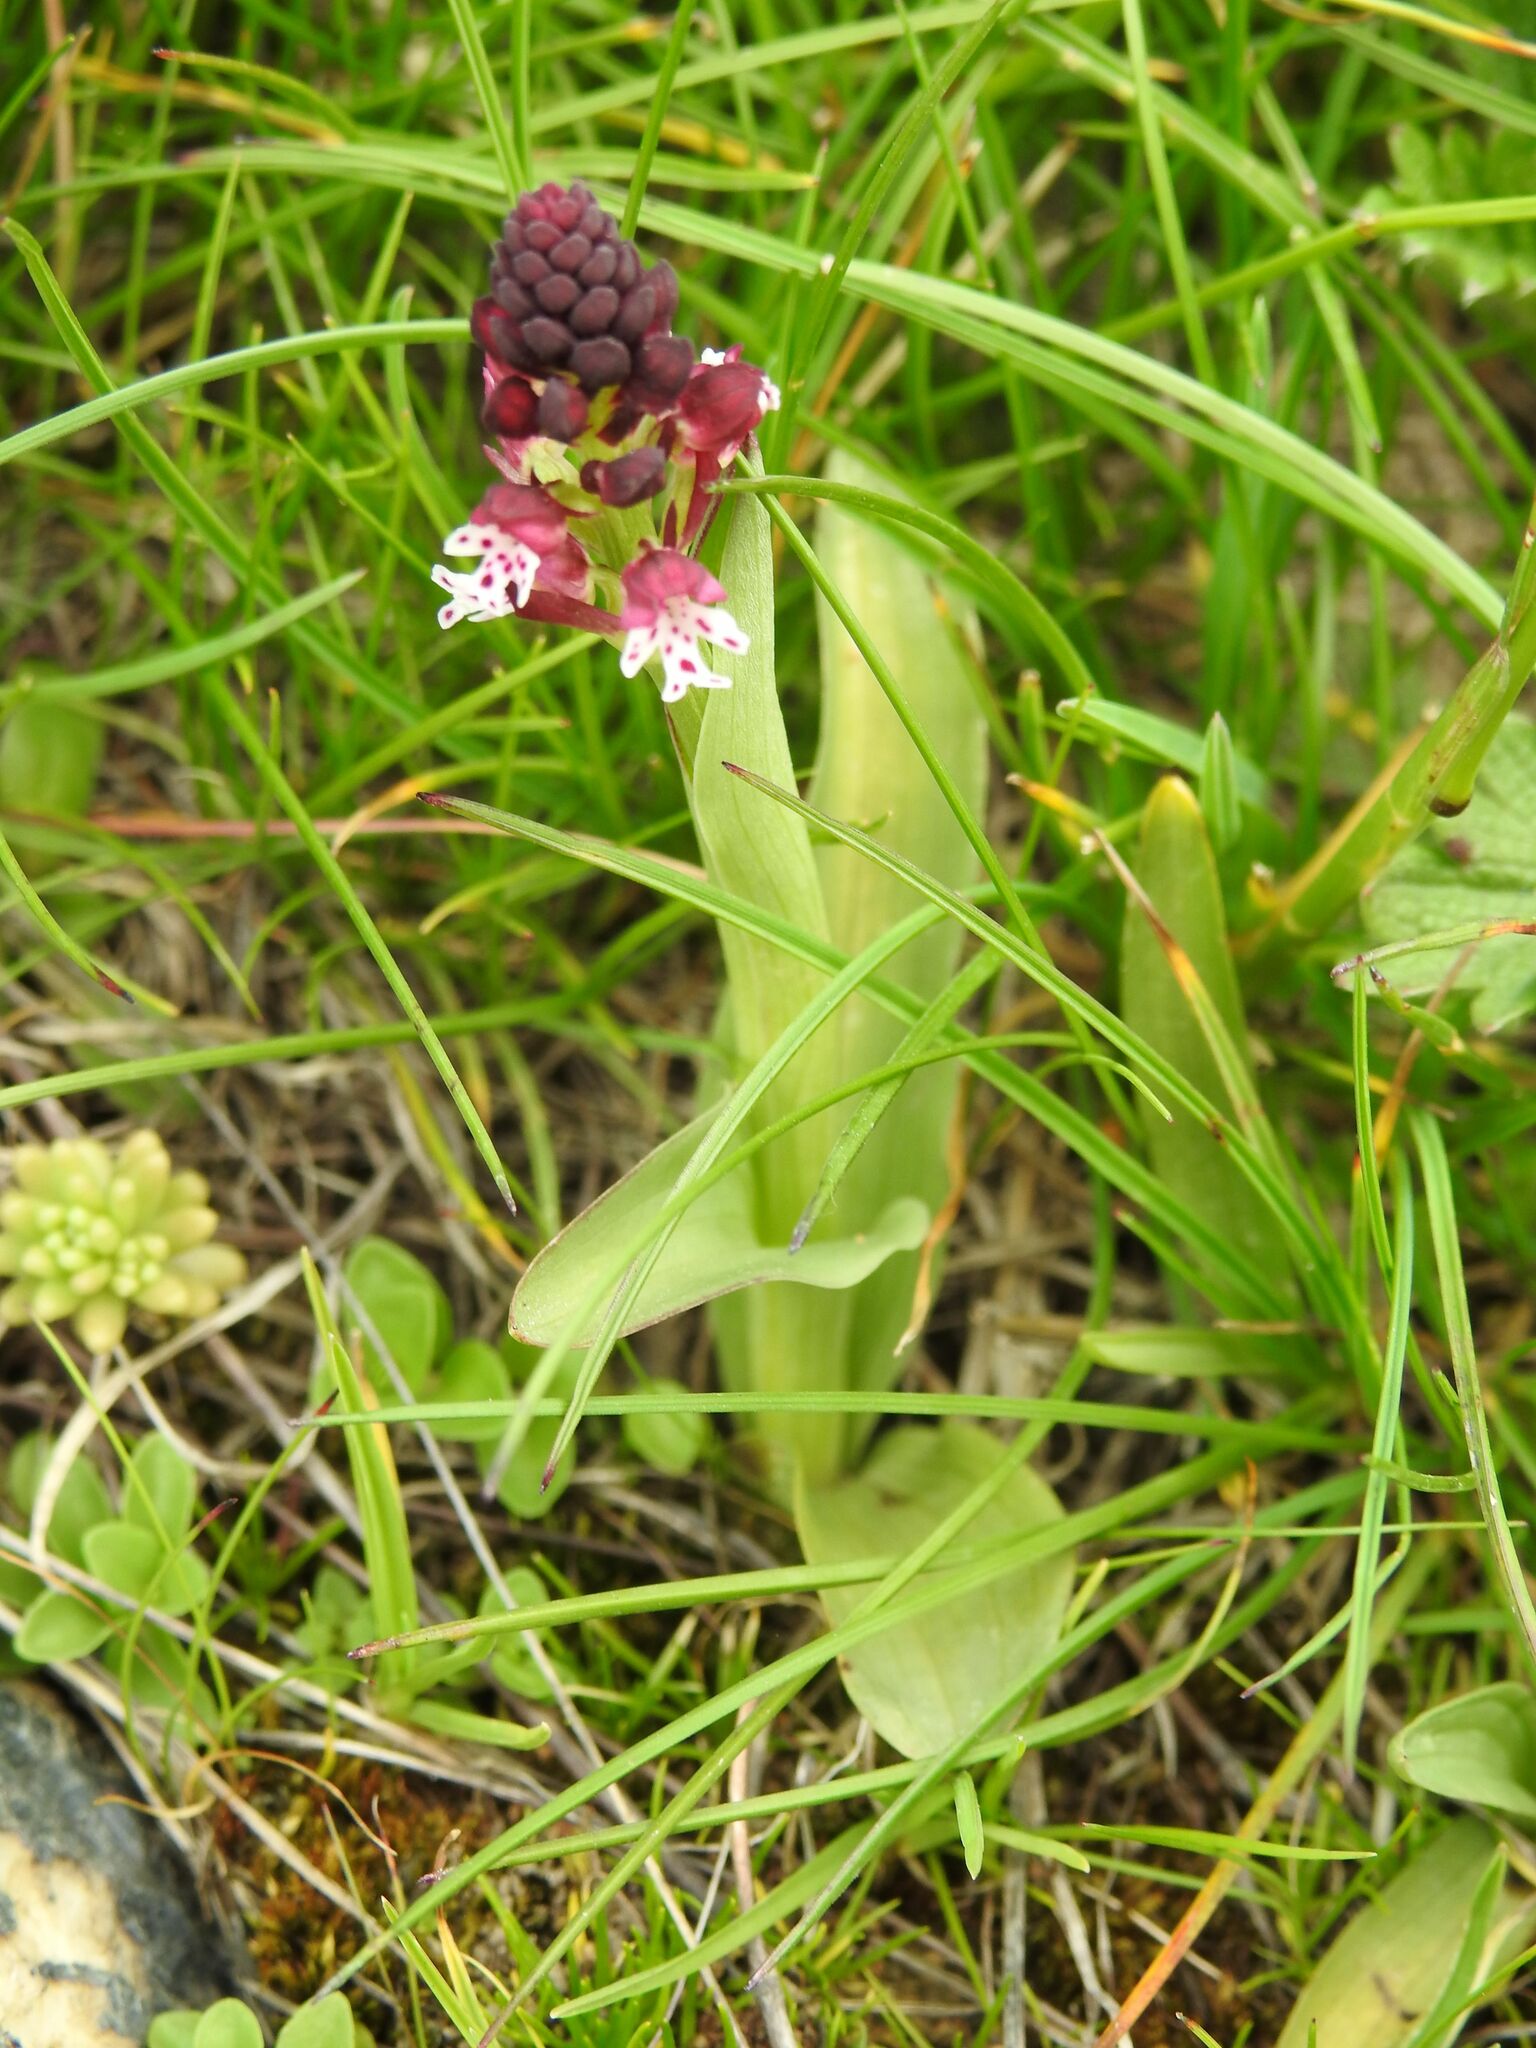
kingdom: Plantae
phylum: Tracheophyta
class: Liliopsida
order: Asparagales
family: Orchidaceae
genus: Neotinea
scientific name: Neotinea ustulata
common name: Burnt orchid
